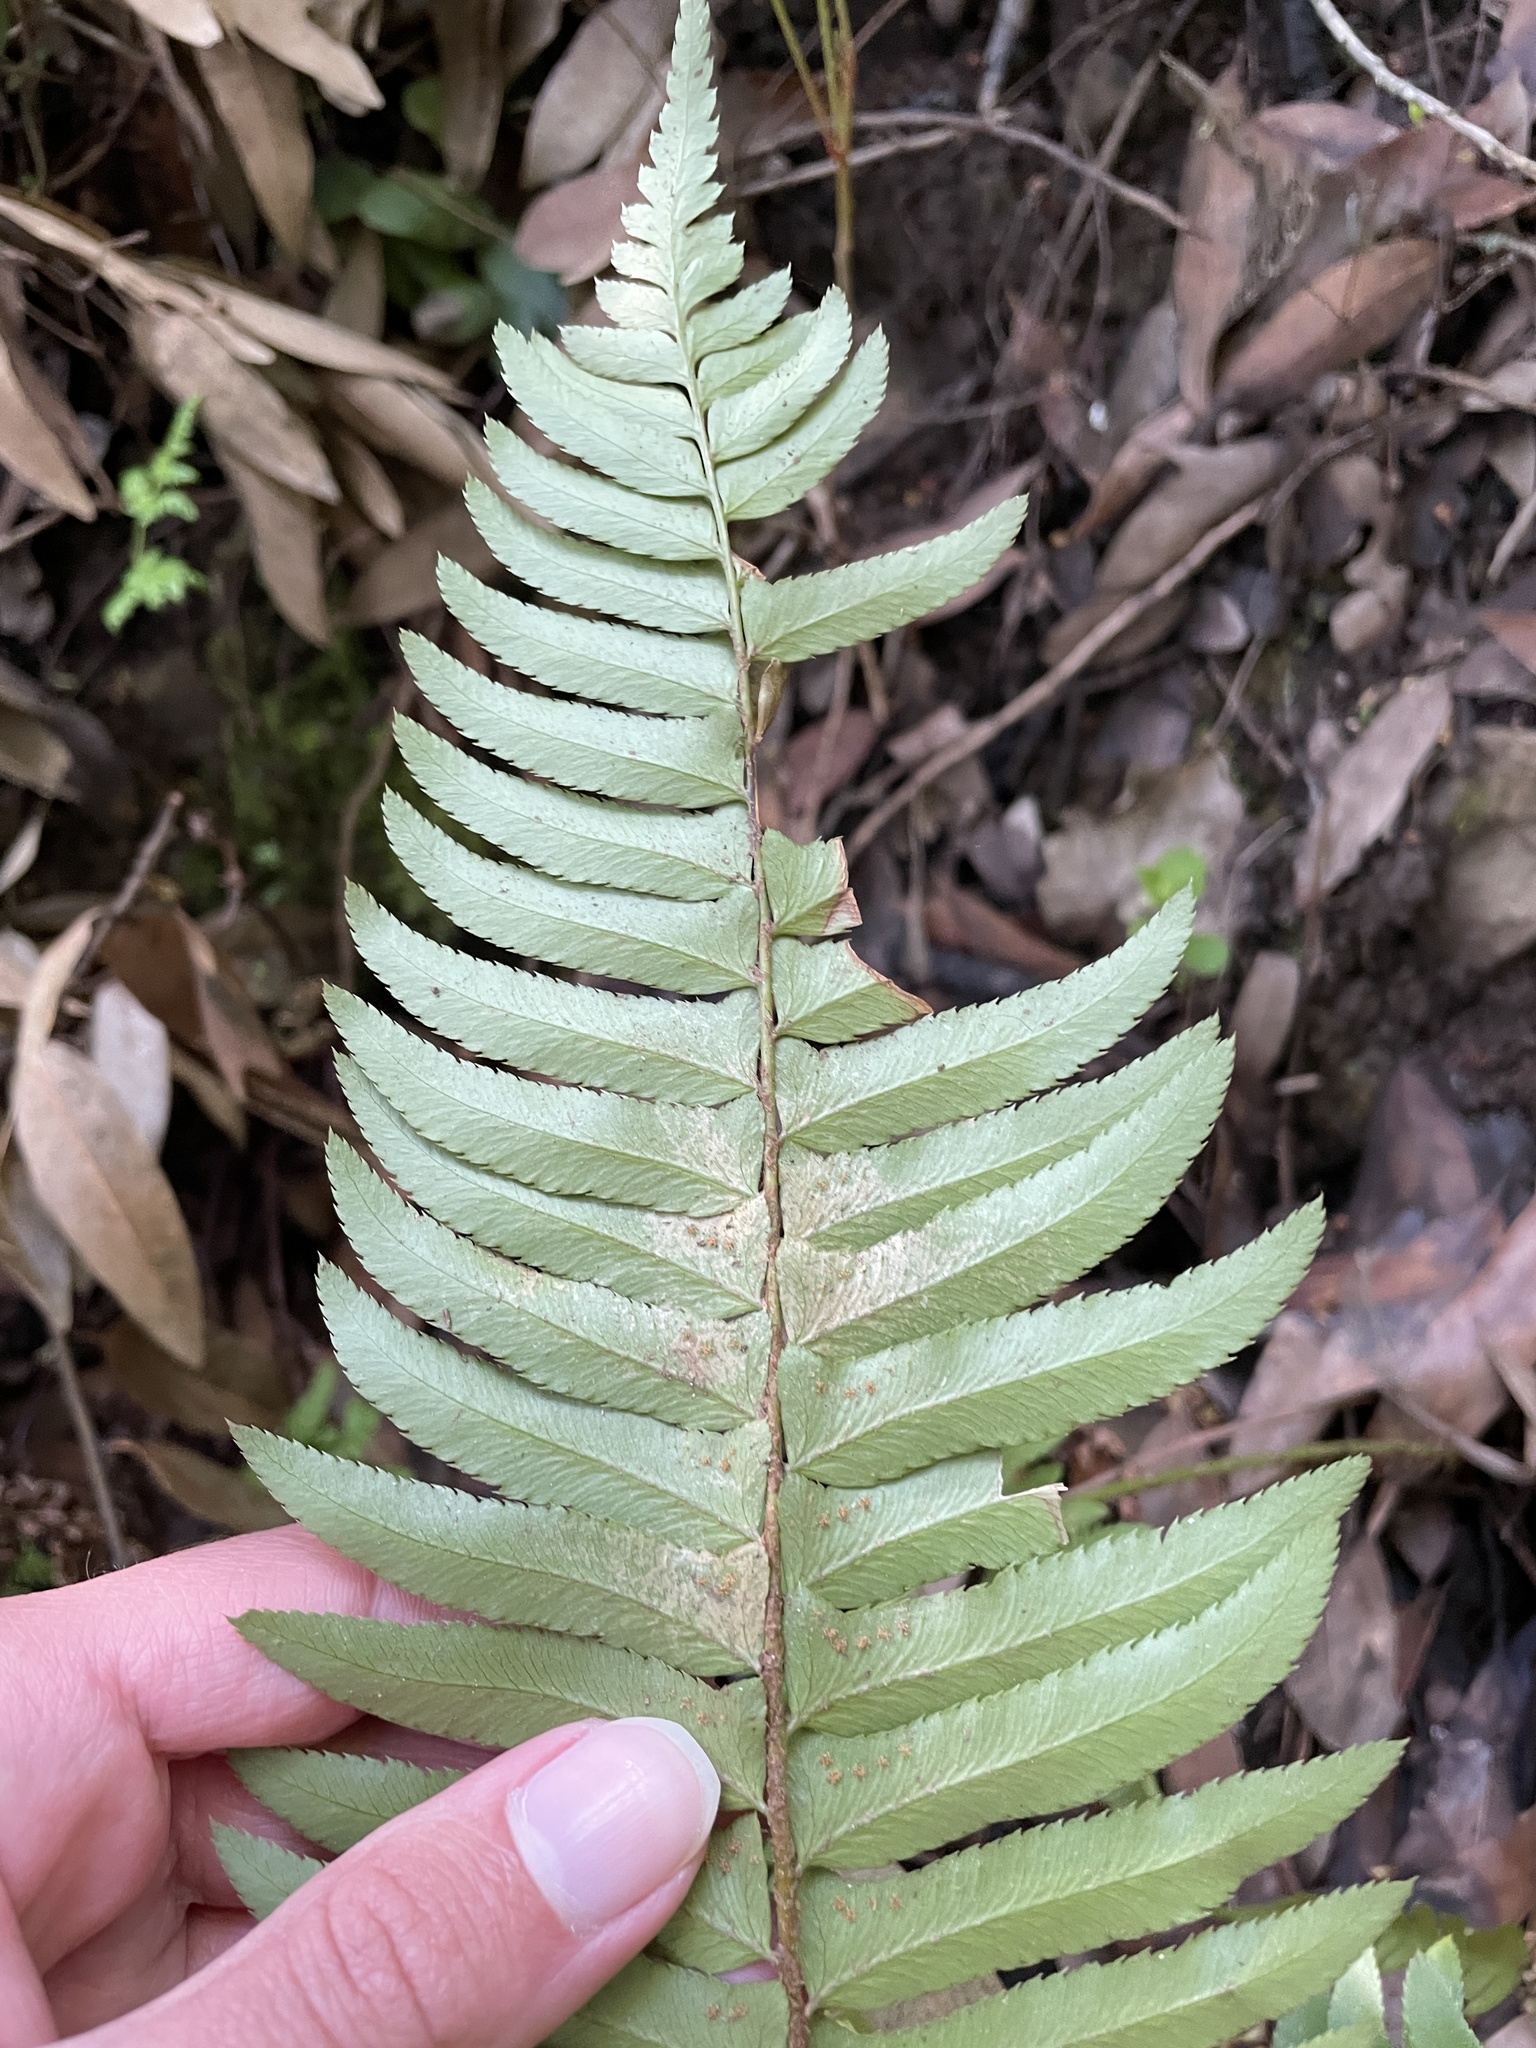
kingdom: Plantae
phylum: Tracheophyta
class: Polypodiopsida
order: Polypodiales
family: Dryopteridaceae
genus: Polystichum
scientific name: Polystichum munitum
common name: Western sword-fern
